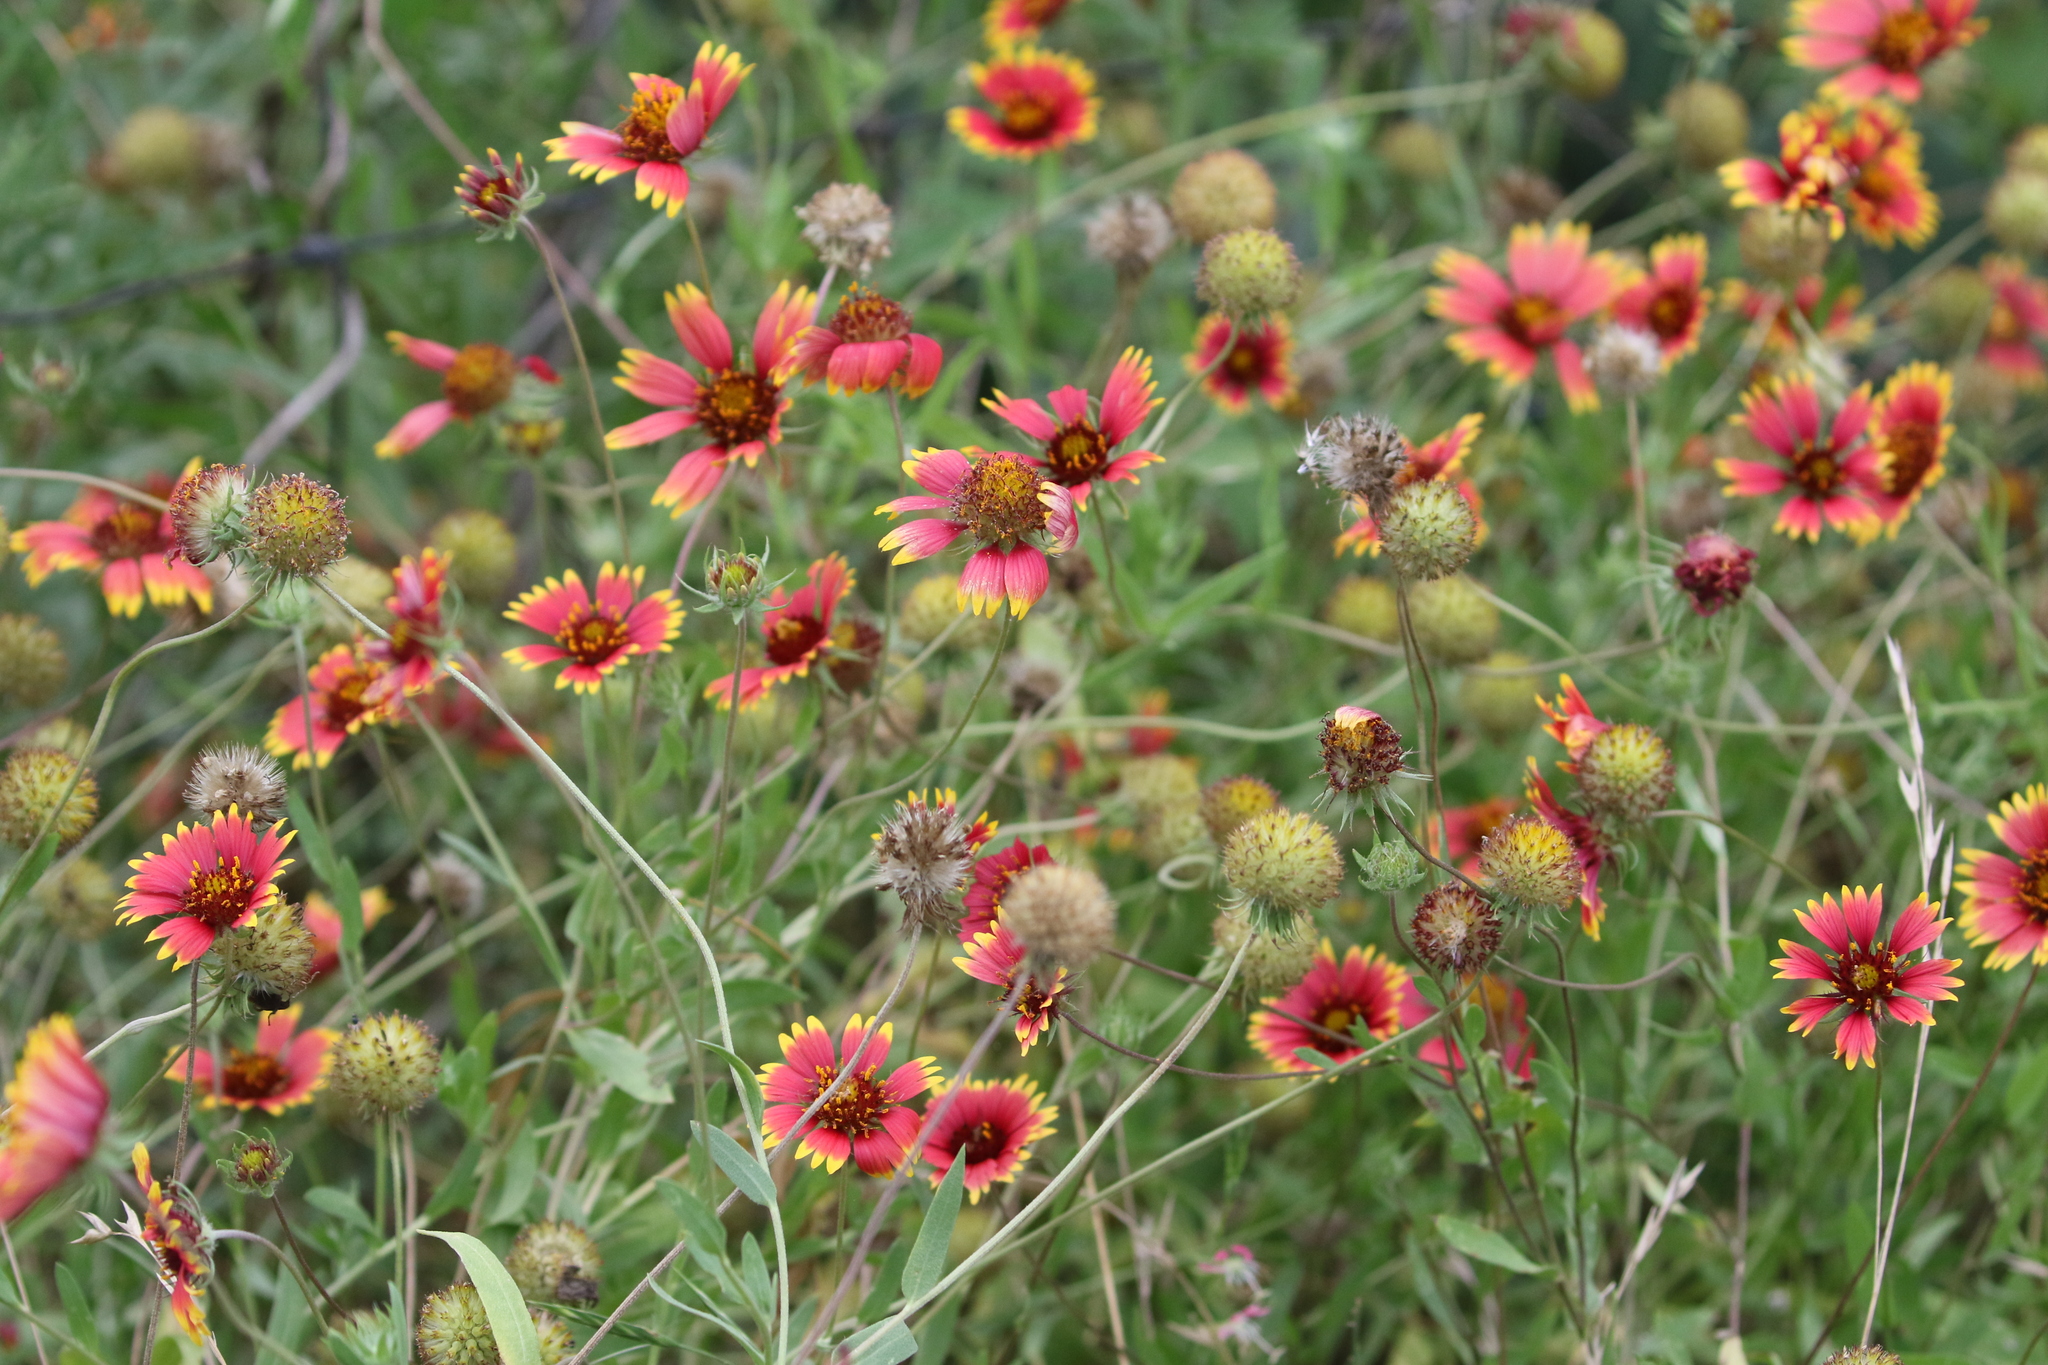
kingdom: Plantae
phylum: Tracheophyta
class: Magnoliopsida
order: Asterales
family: Asteraceae
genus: Gaillardia
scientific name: Gaillardia pulchella
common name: Firewheel
